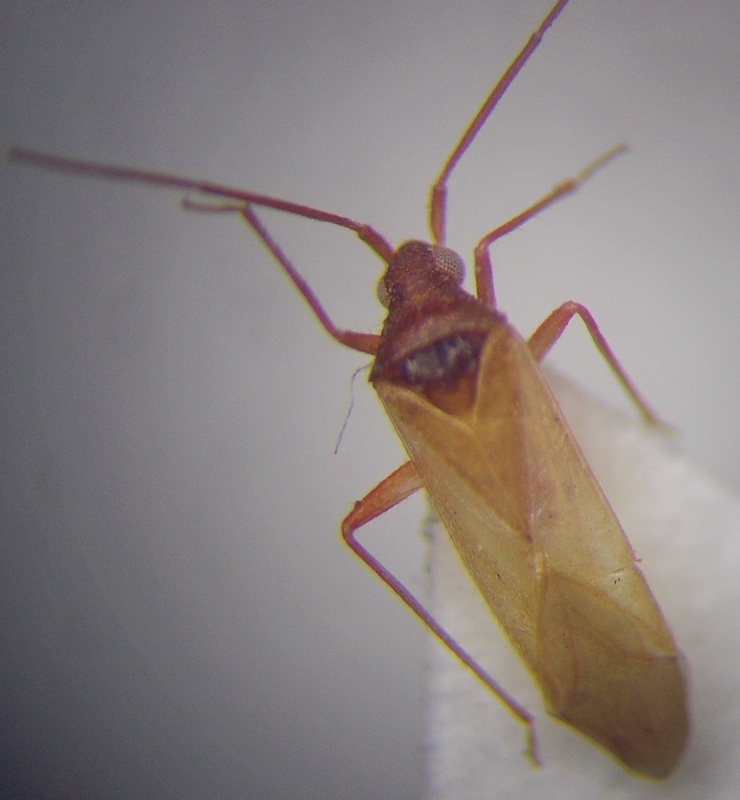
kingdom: Animalia
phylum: Arthropoda
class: Insecta
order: Hemiptera
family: Miridae
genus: Hallodapus
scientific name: Hallodapus concolor
